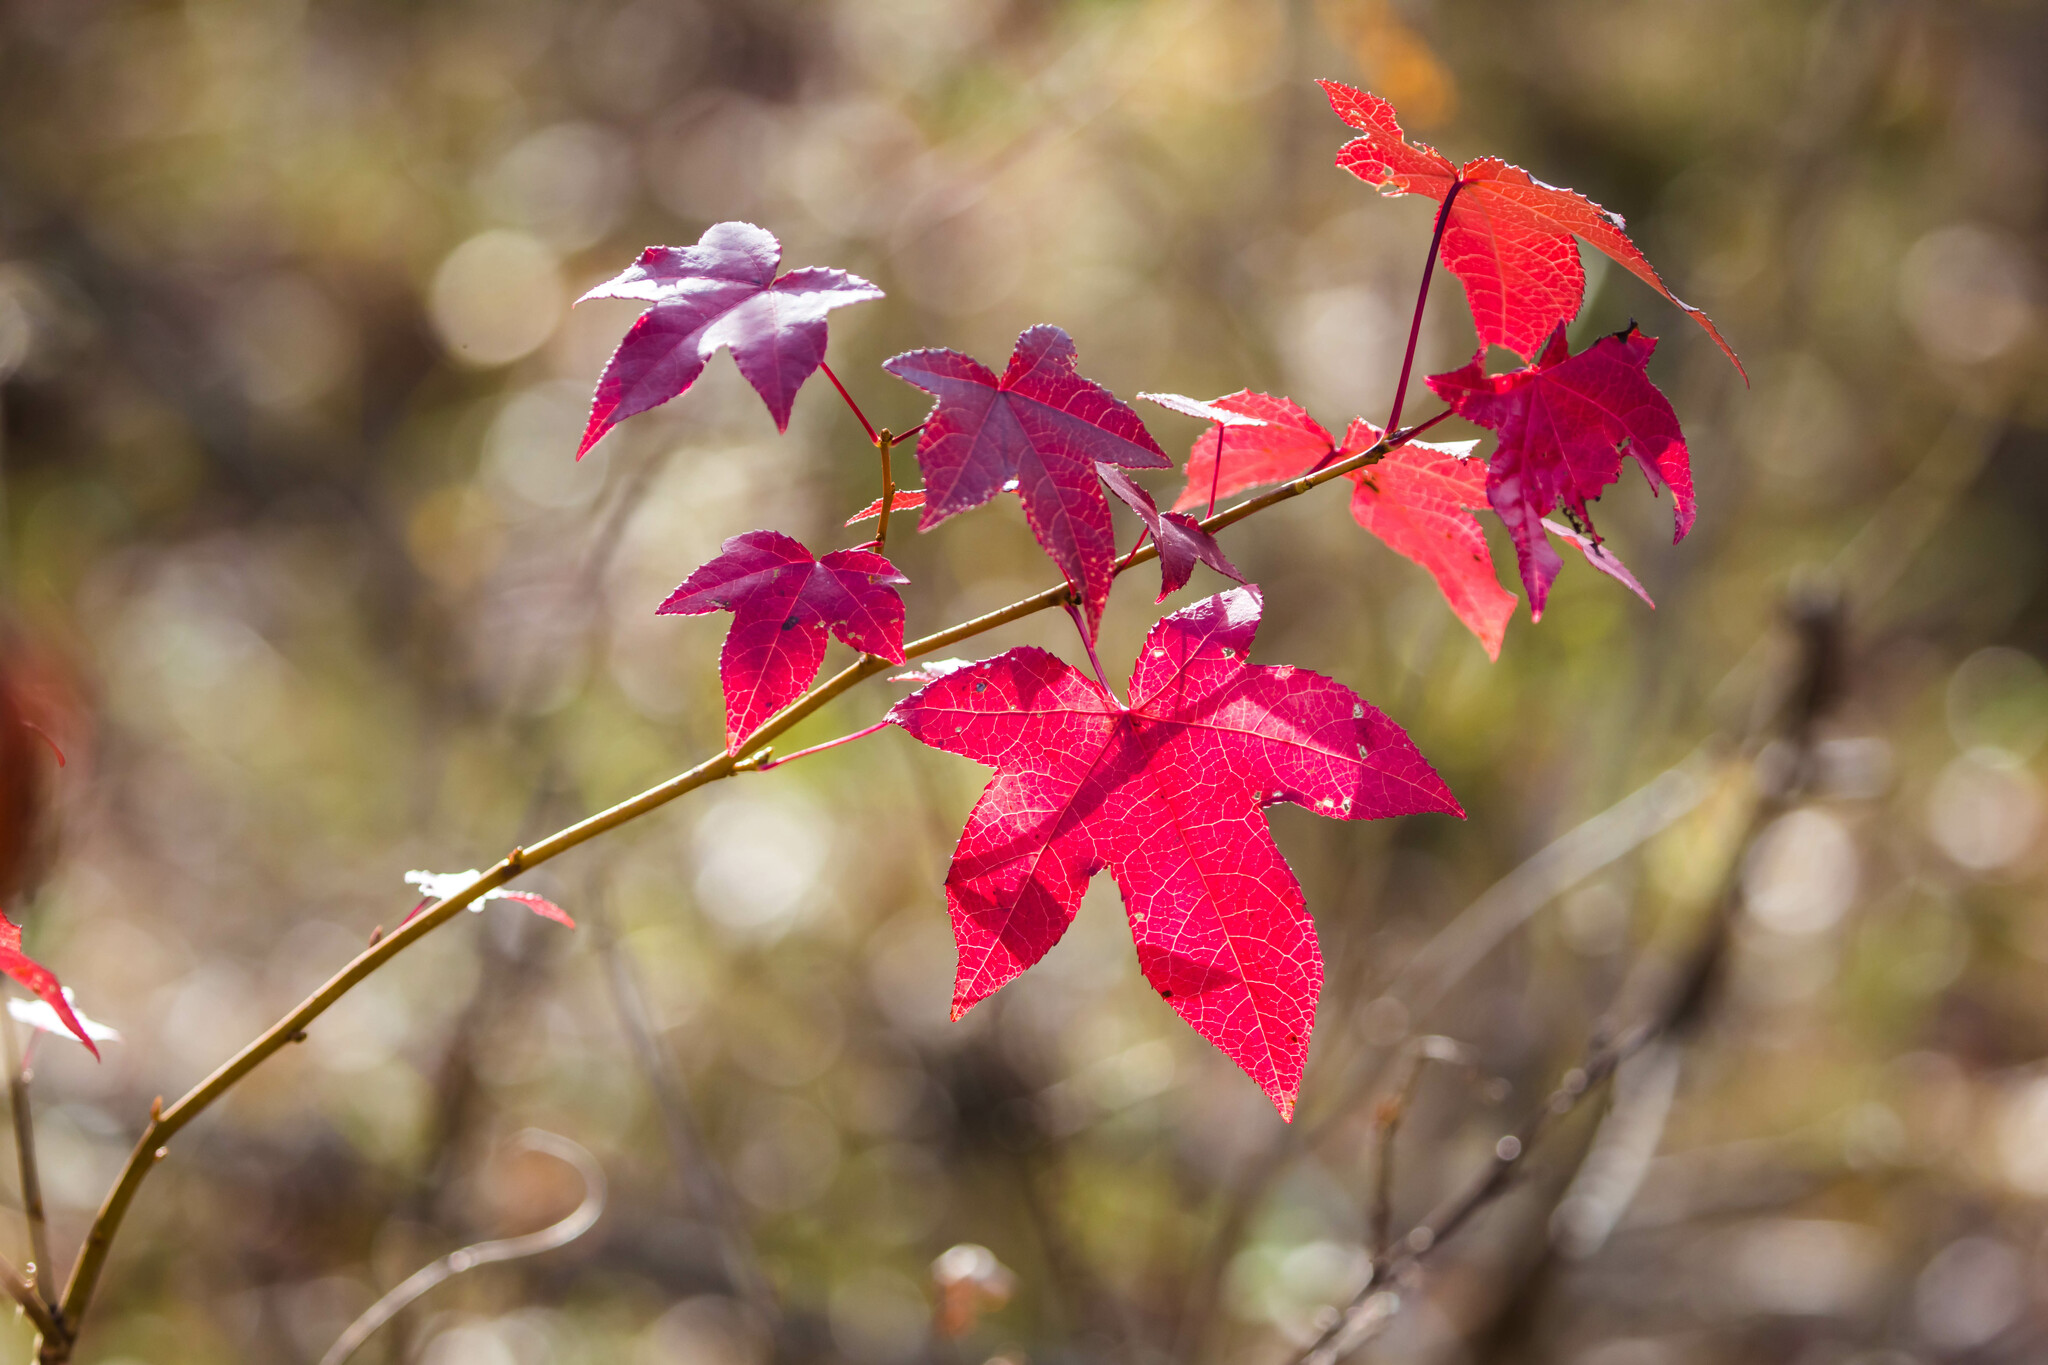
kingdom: Plantae
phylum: Tracheophyta
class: Magnoliopsida
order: Saxifragales
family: Altingiaceae
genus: Liquidambar
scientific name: Liquidambar styraciflua
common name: Sweet gum
